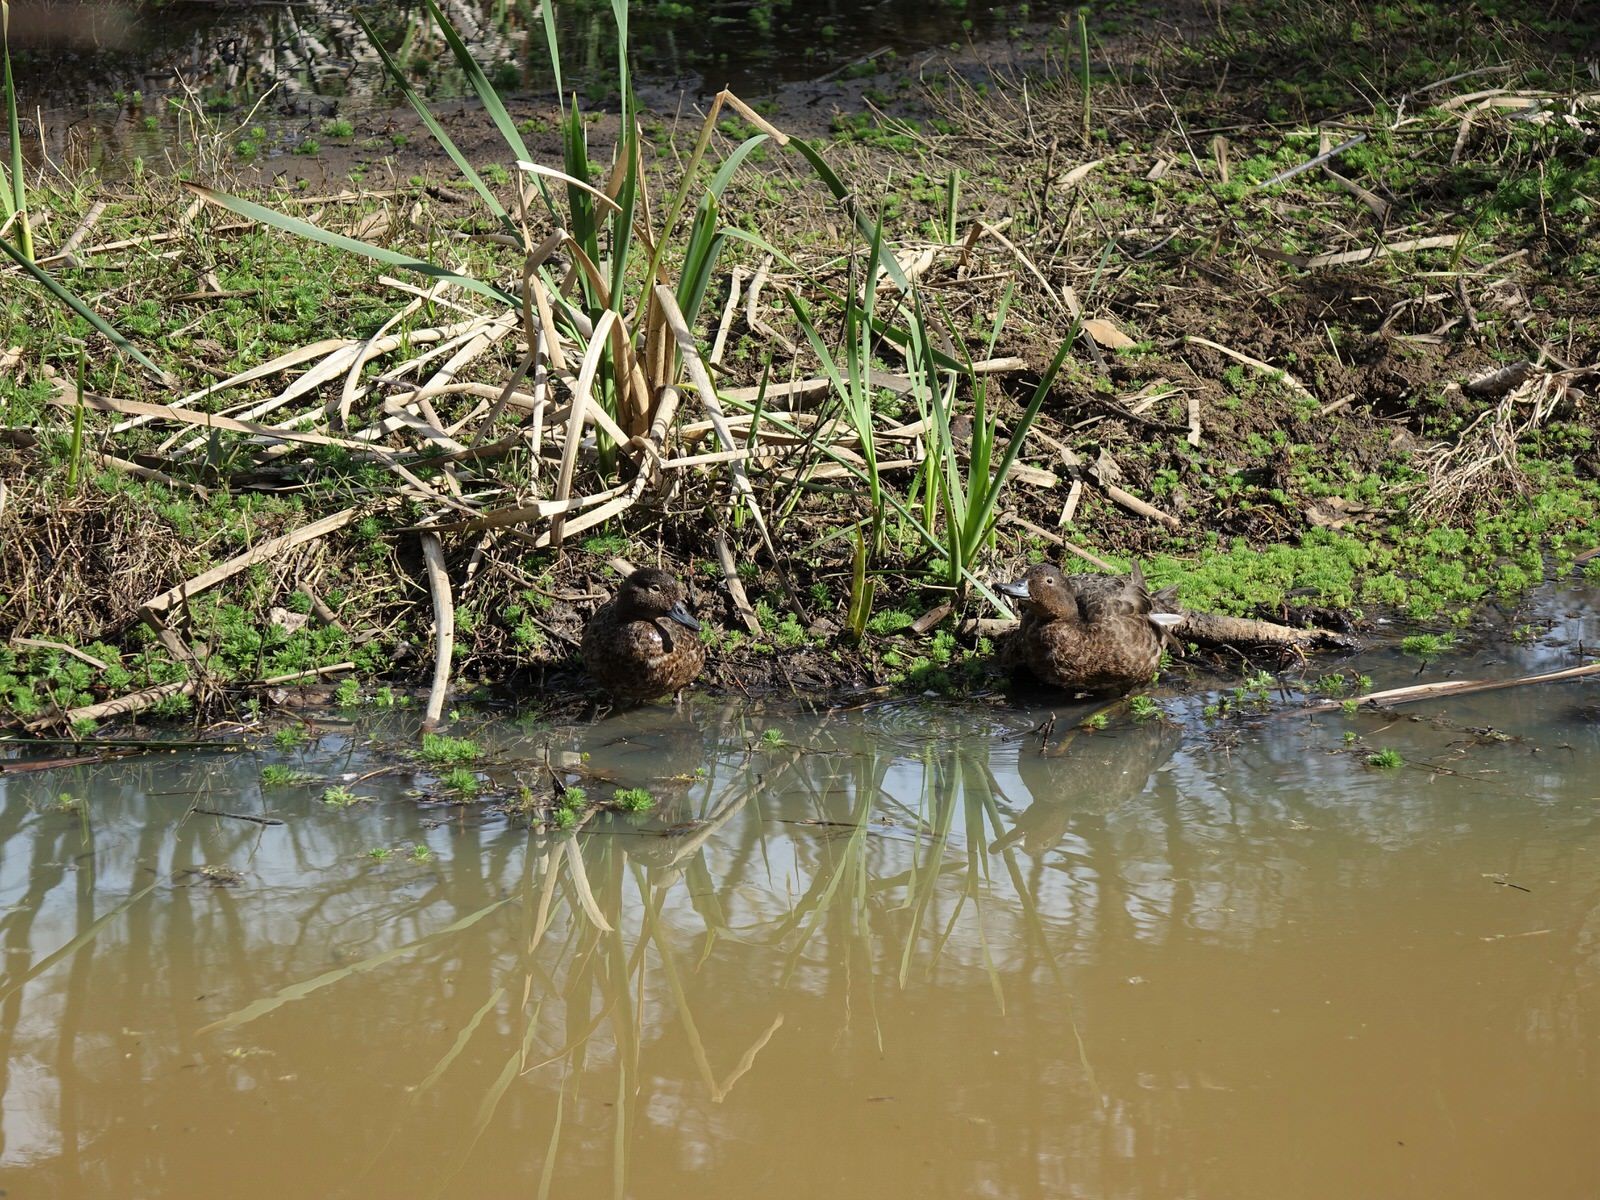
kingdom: Animalia
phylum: Chordata
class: Aves
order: Anseriformes
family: Anatidae
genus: Anas
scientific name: Anas chlorotis
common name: Brown teal
